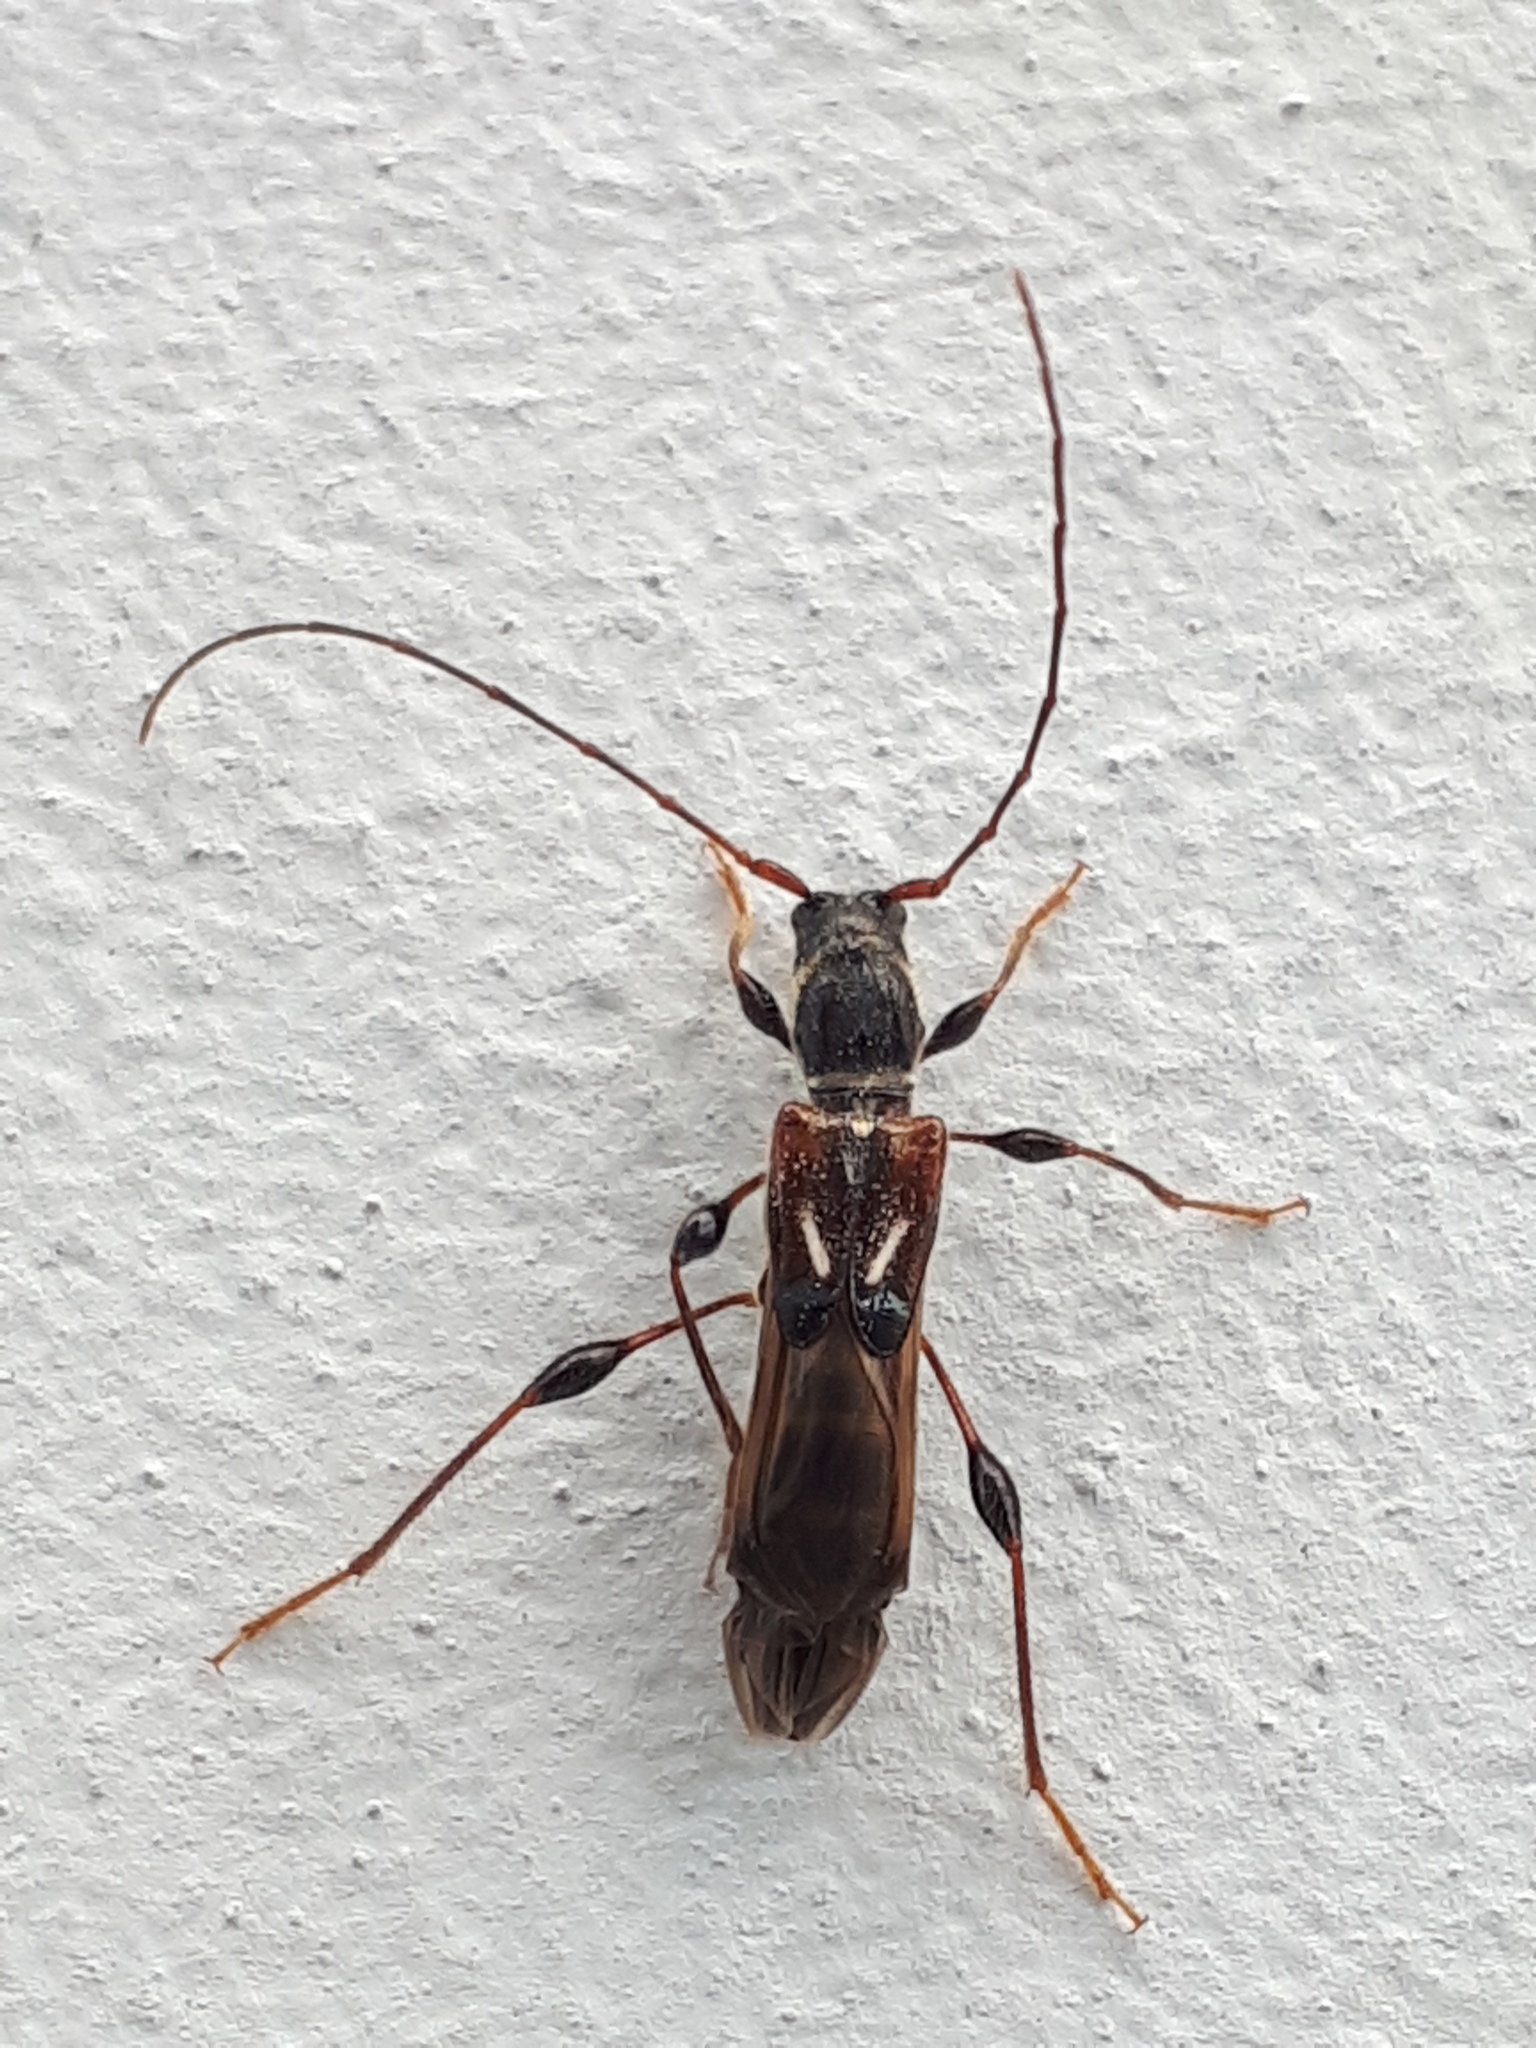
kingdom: Animalia
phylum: Arthropoda
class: Insecta
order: Coleoptera
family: Cerambycidae
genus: Molorchus
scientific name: Molorchus minor
